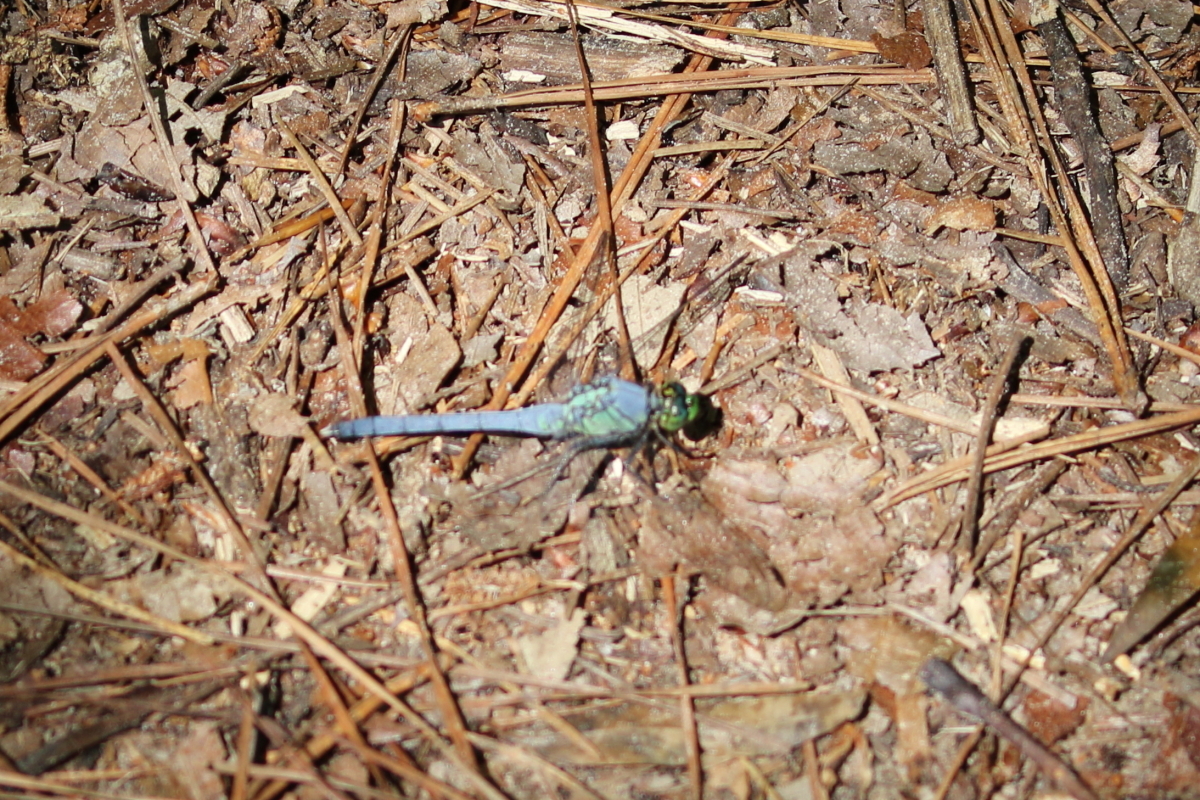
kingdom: Animalia
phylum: Arthropoda
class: Insecta
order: Odonata
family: Libellulidae
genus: Erythemis
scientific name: Erythemis simplicicollis
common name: Eastern pondhawk
